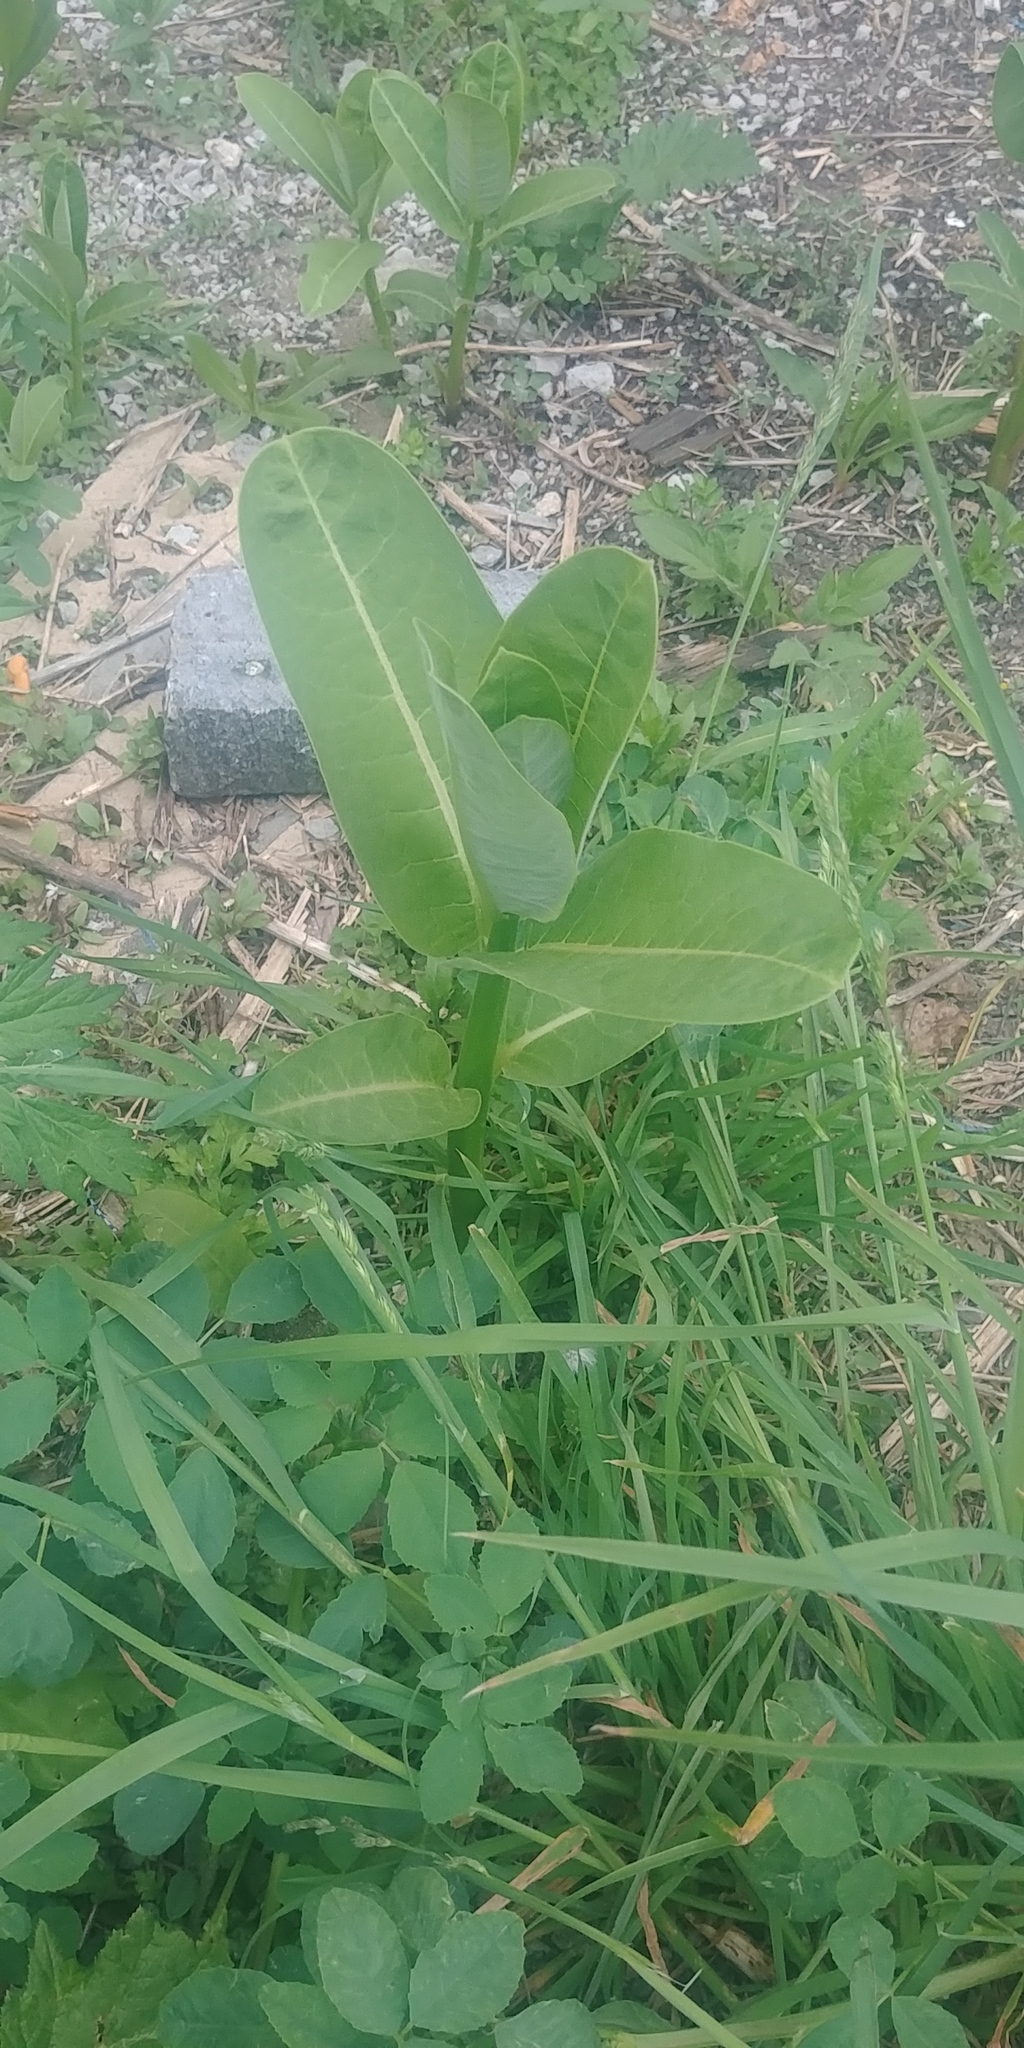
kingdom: Plantae
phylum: Tracheophyta
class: Magnoliopsida
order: Gentianales
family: Apocynaceae
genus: Asclepias
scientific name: Asclepias syriaca
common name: Common milkweed
